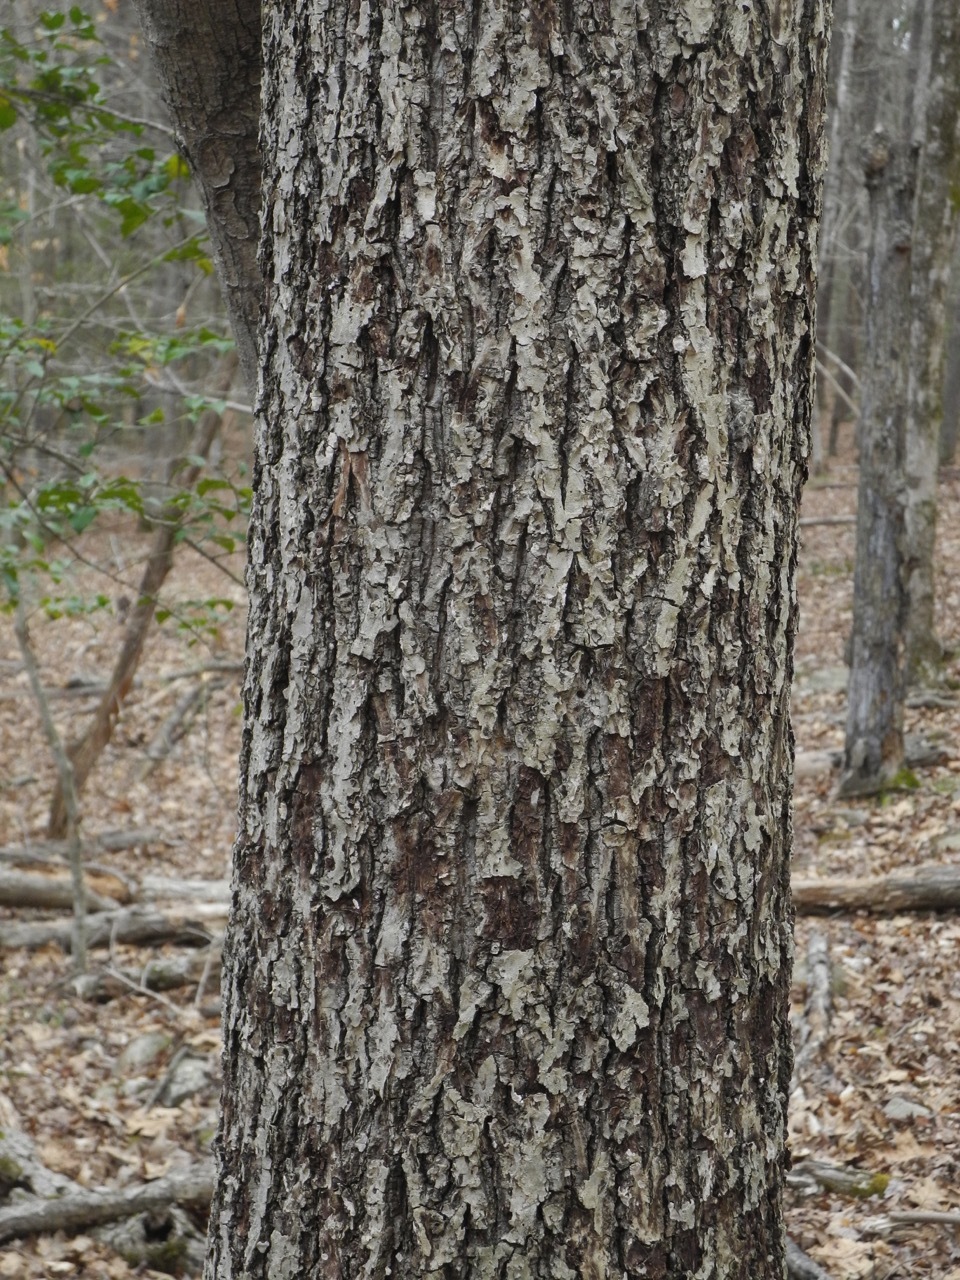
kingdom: Plantae
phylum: Tracheophyta
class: Magnoliopsida
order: Fagales
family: Fagaceae
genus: Quercus
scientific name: Quercus stellata
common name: Post oak
